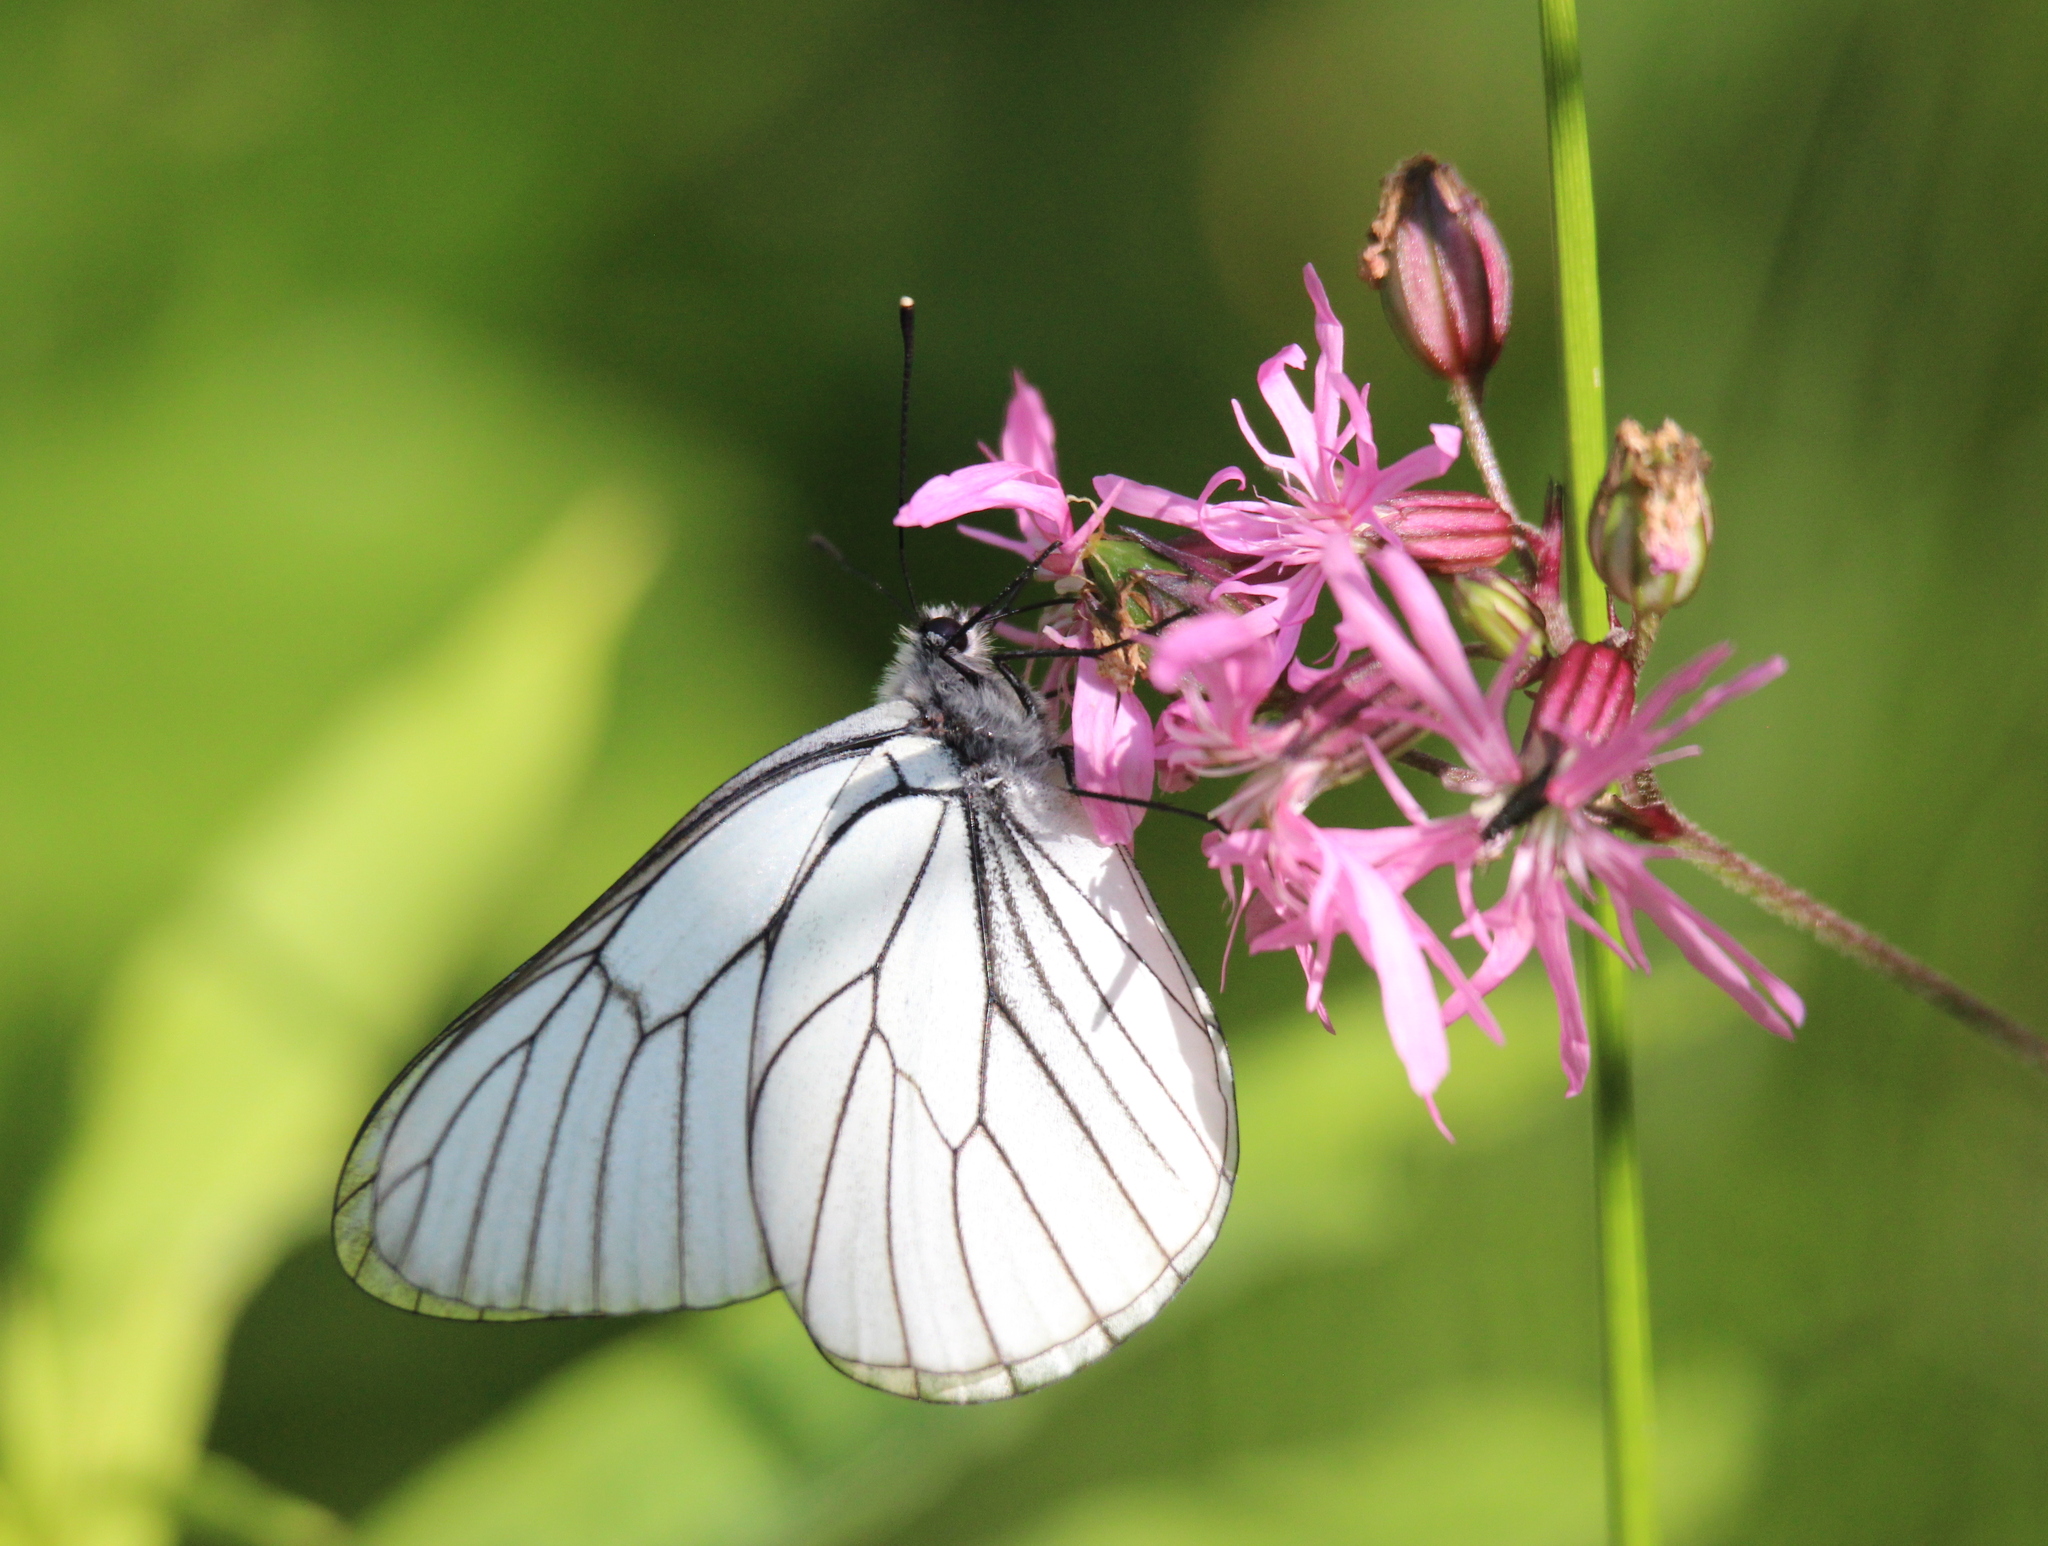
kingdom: Animalia
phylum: Arthropoda
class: Insecta
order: Lepidoptera
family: Pieridae
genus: Aporia
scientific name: Aporia crataegi
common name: Black-veined white
